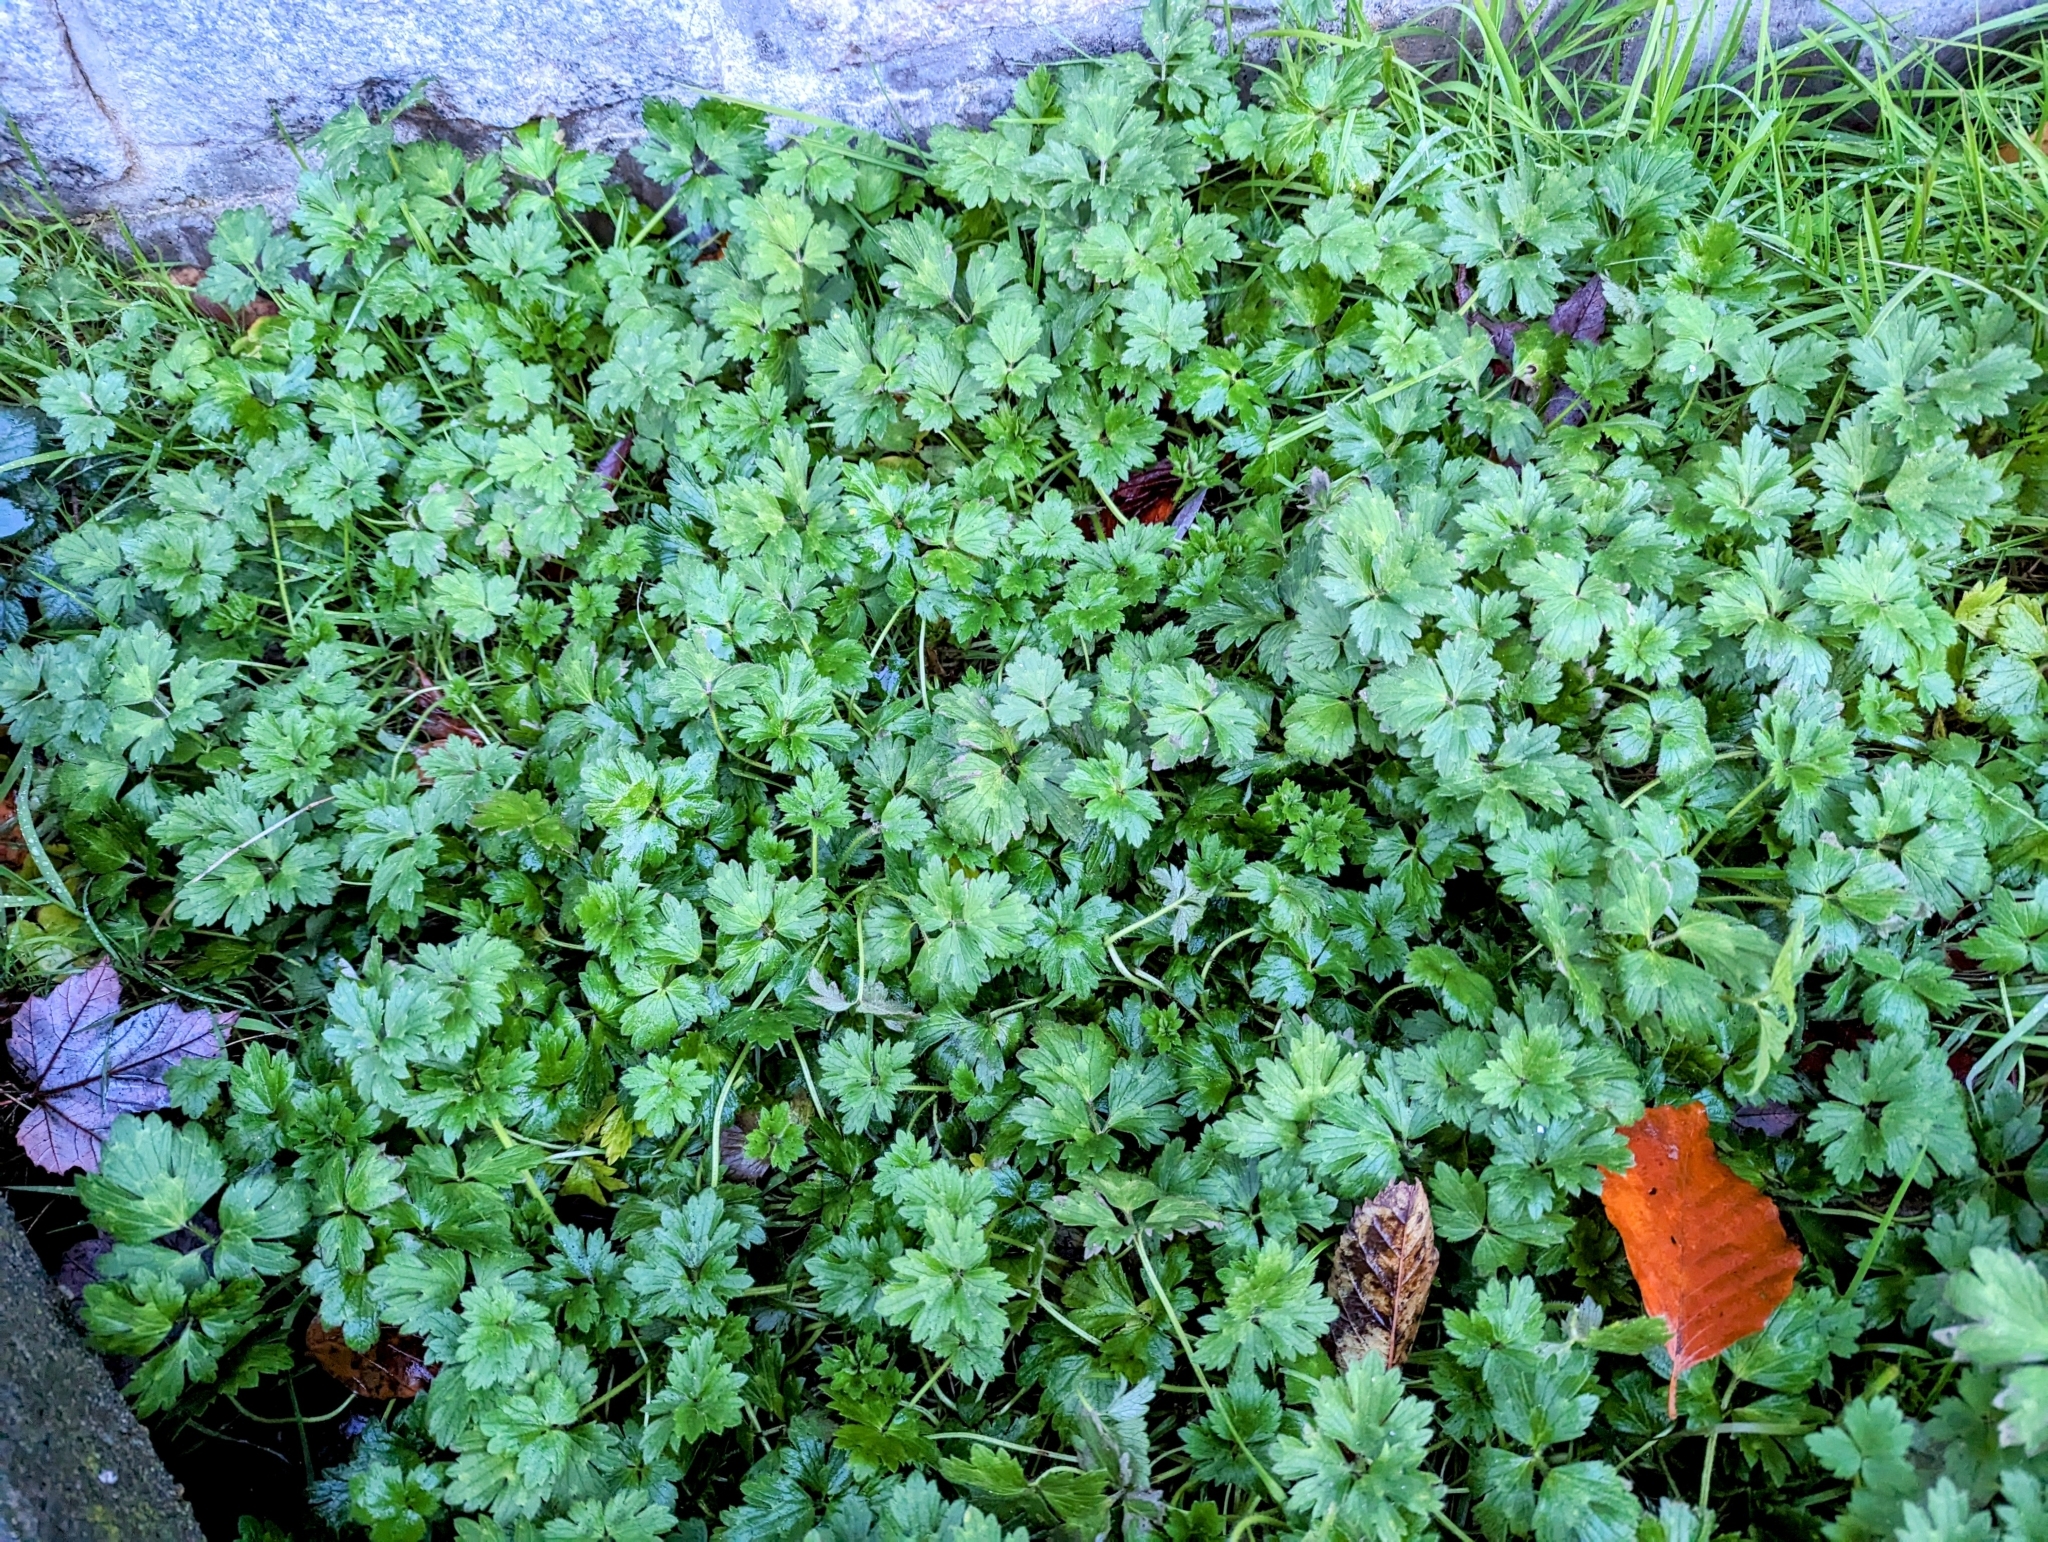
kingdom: Plantae
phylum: Tracheophyta
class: Magnoliopsida
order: Ranunculales
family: Ranunculaceae
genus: Ranunculus
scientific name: Ranunculus repens
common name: Creeping buttercup
